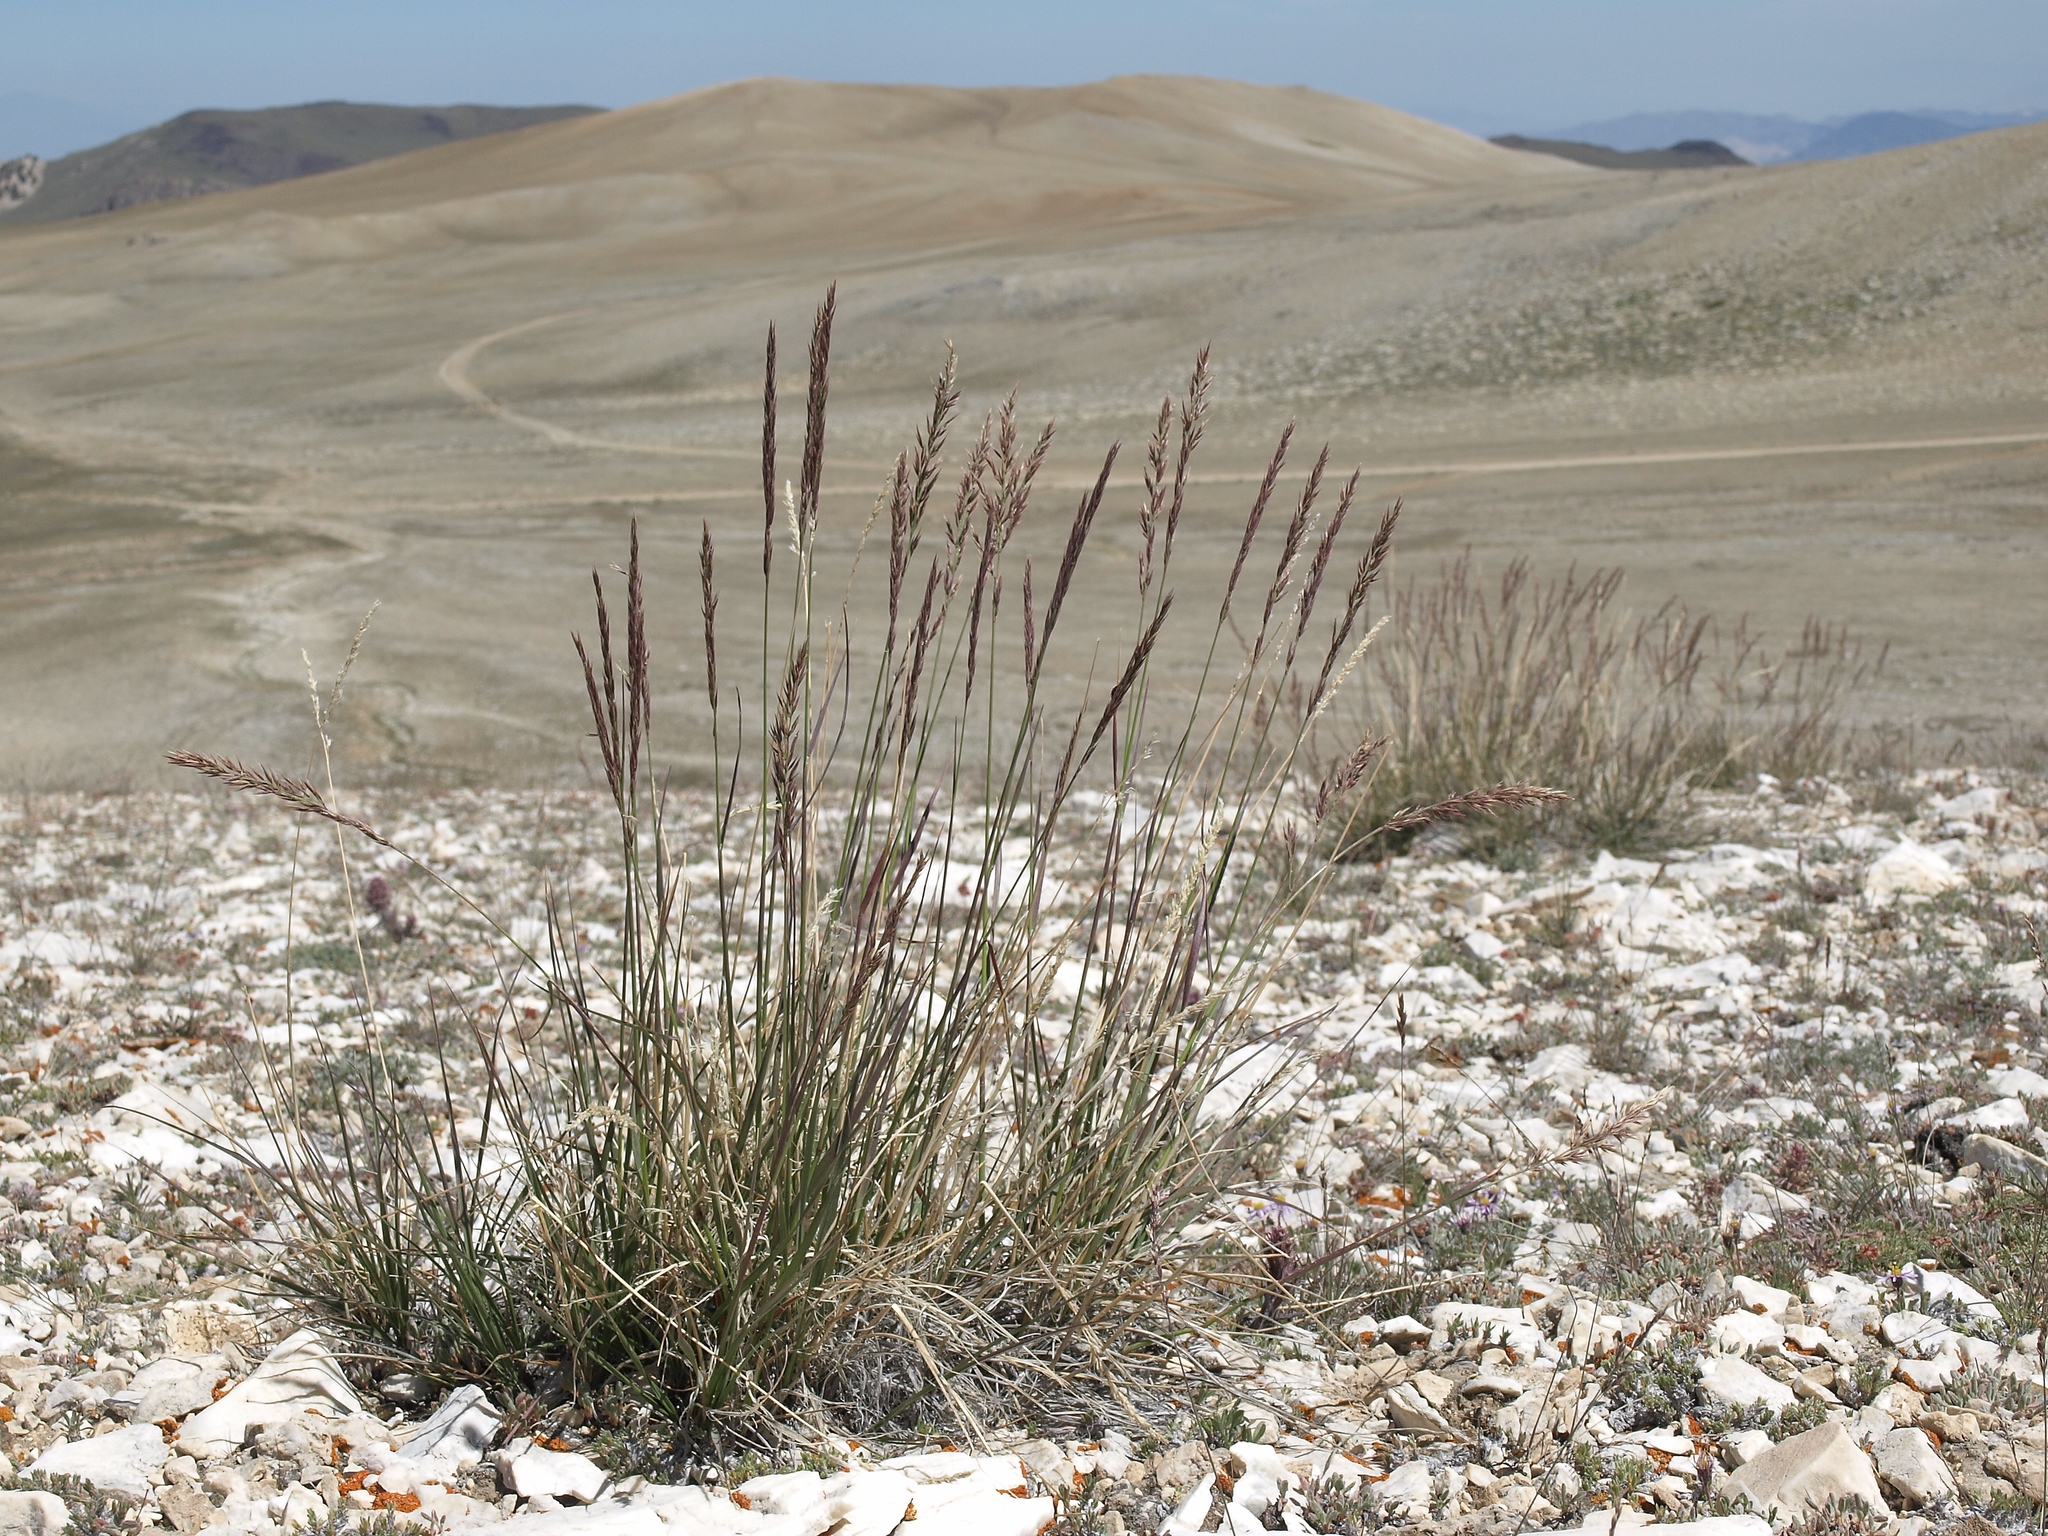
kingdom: Plantae
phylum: Tracheophyta
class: Liliopsida
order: Poales
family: Poaceae
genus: Calamagrostis
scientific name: Calamagrostis purpurascens
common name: Purple reedgrass
